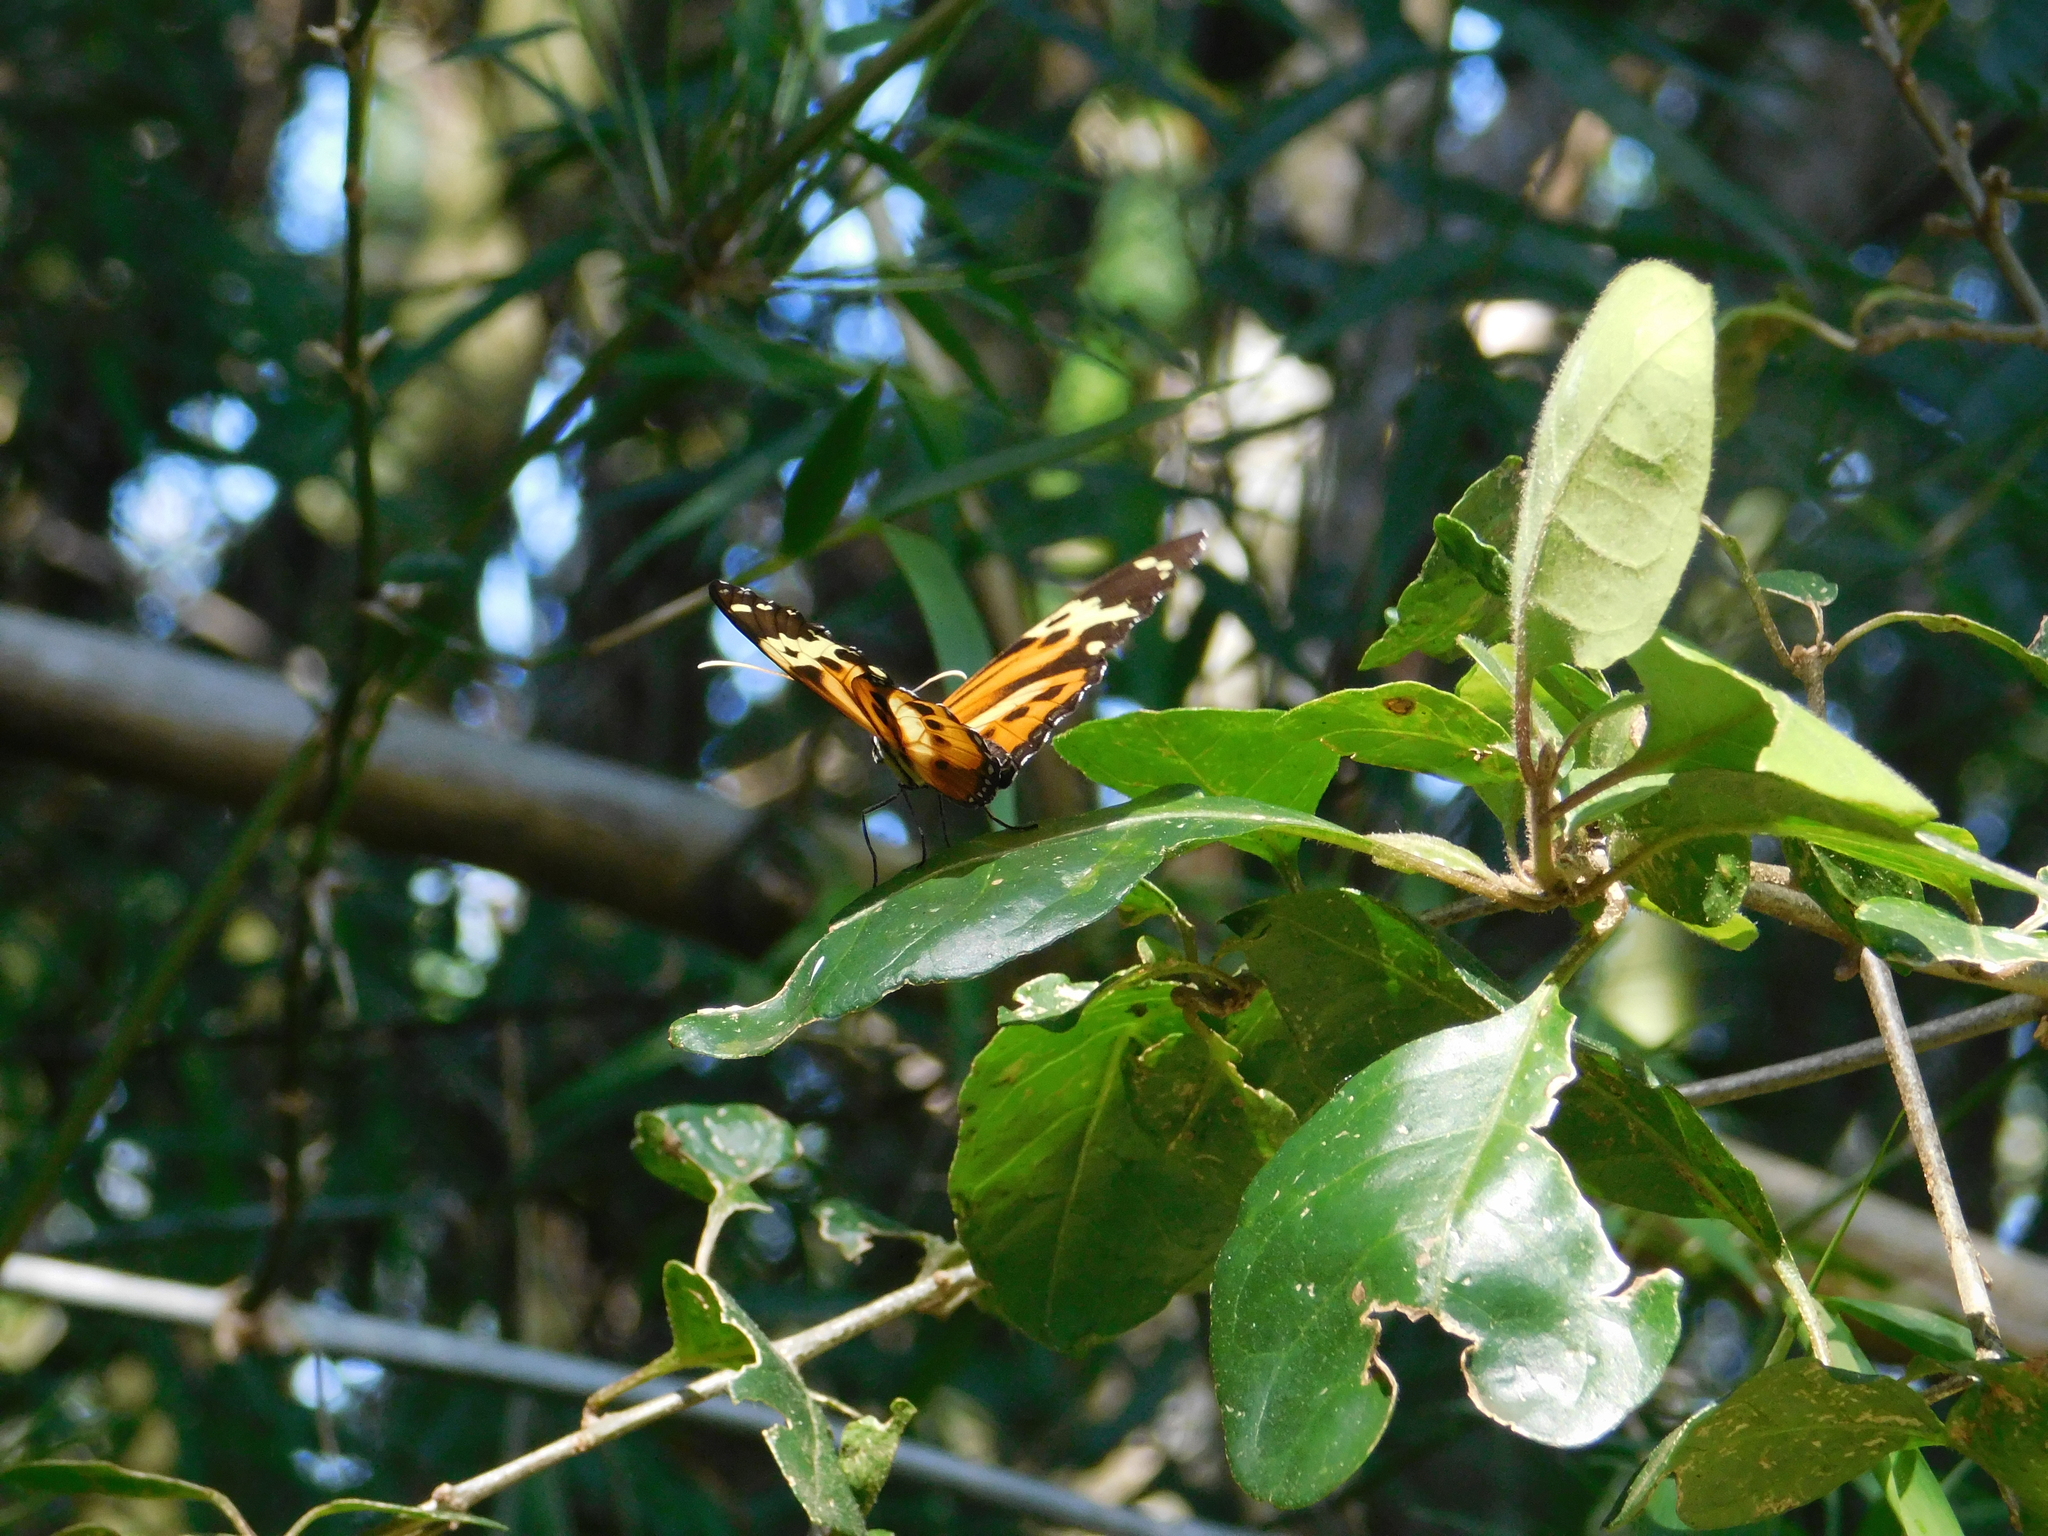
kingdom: Animalia
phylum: Arthropoda
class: Insecta
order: Lepidoptera
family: Nymphalidae
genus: Tithorea
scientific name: Tithorea harmonia
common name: Harmonia tigerwing
